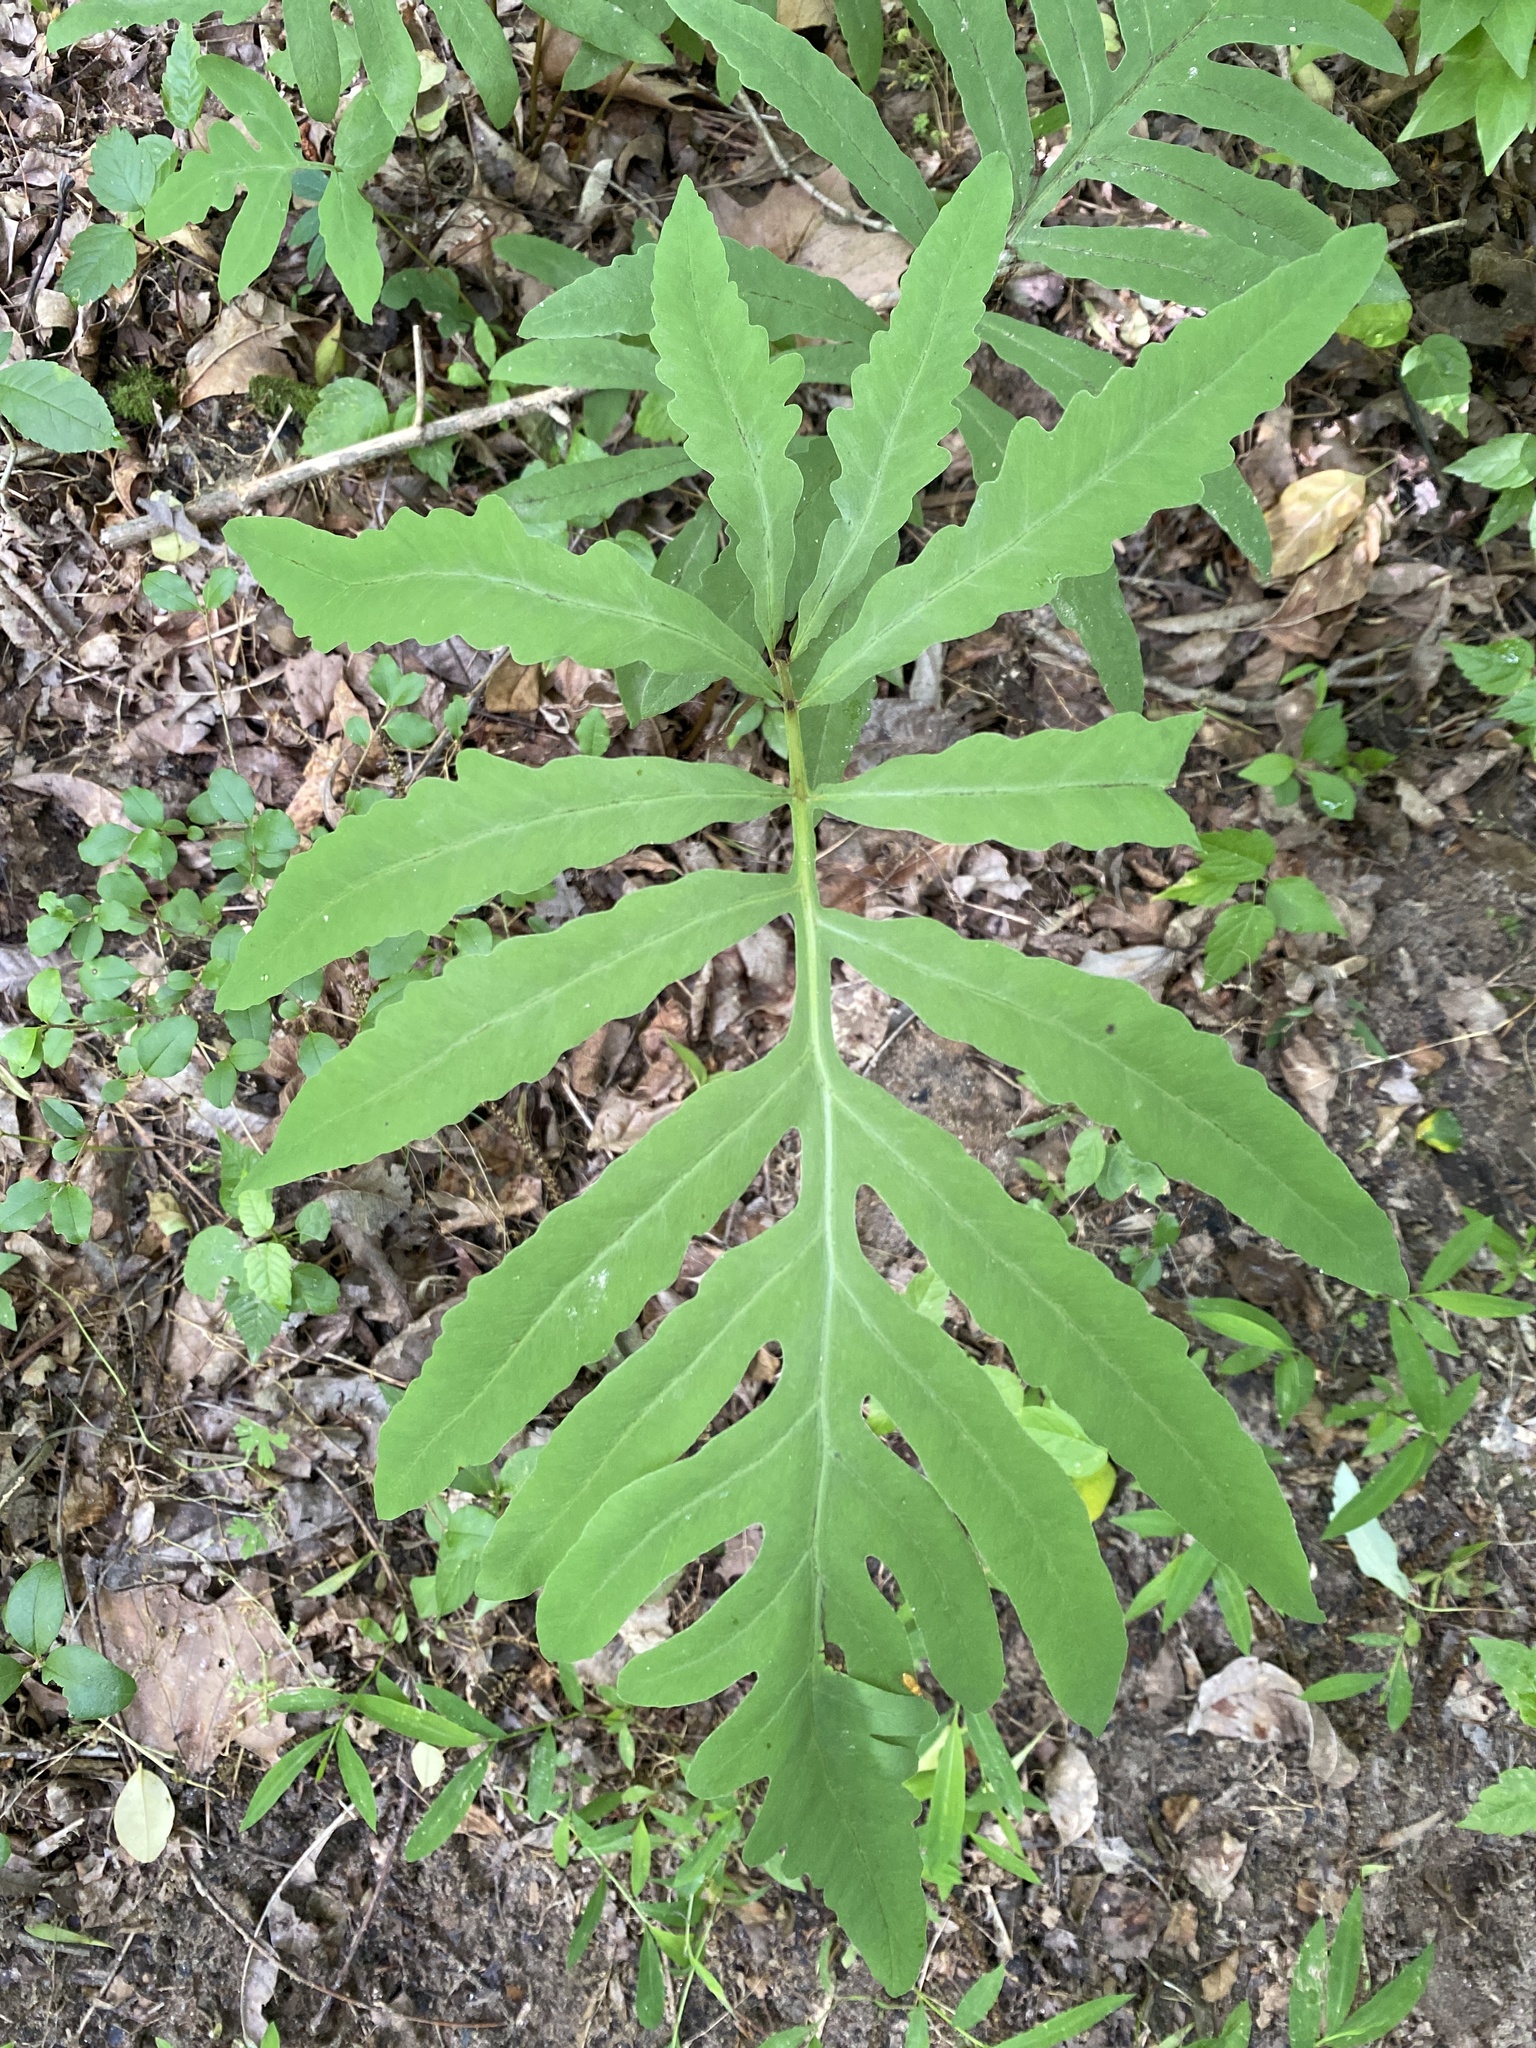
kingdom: Plantae
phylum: Tracheophyta
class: Polypodiopsida
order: Polypodiales
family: Onocleaceae
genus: Onoclea
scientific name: Onoclea sensibilis
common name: Sensitive fern
